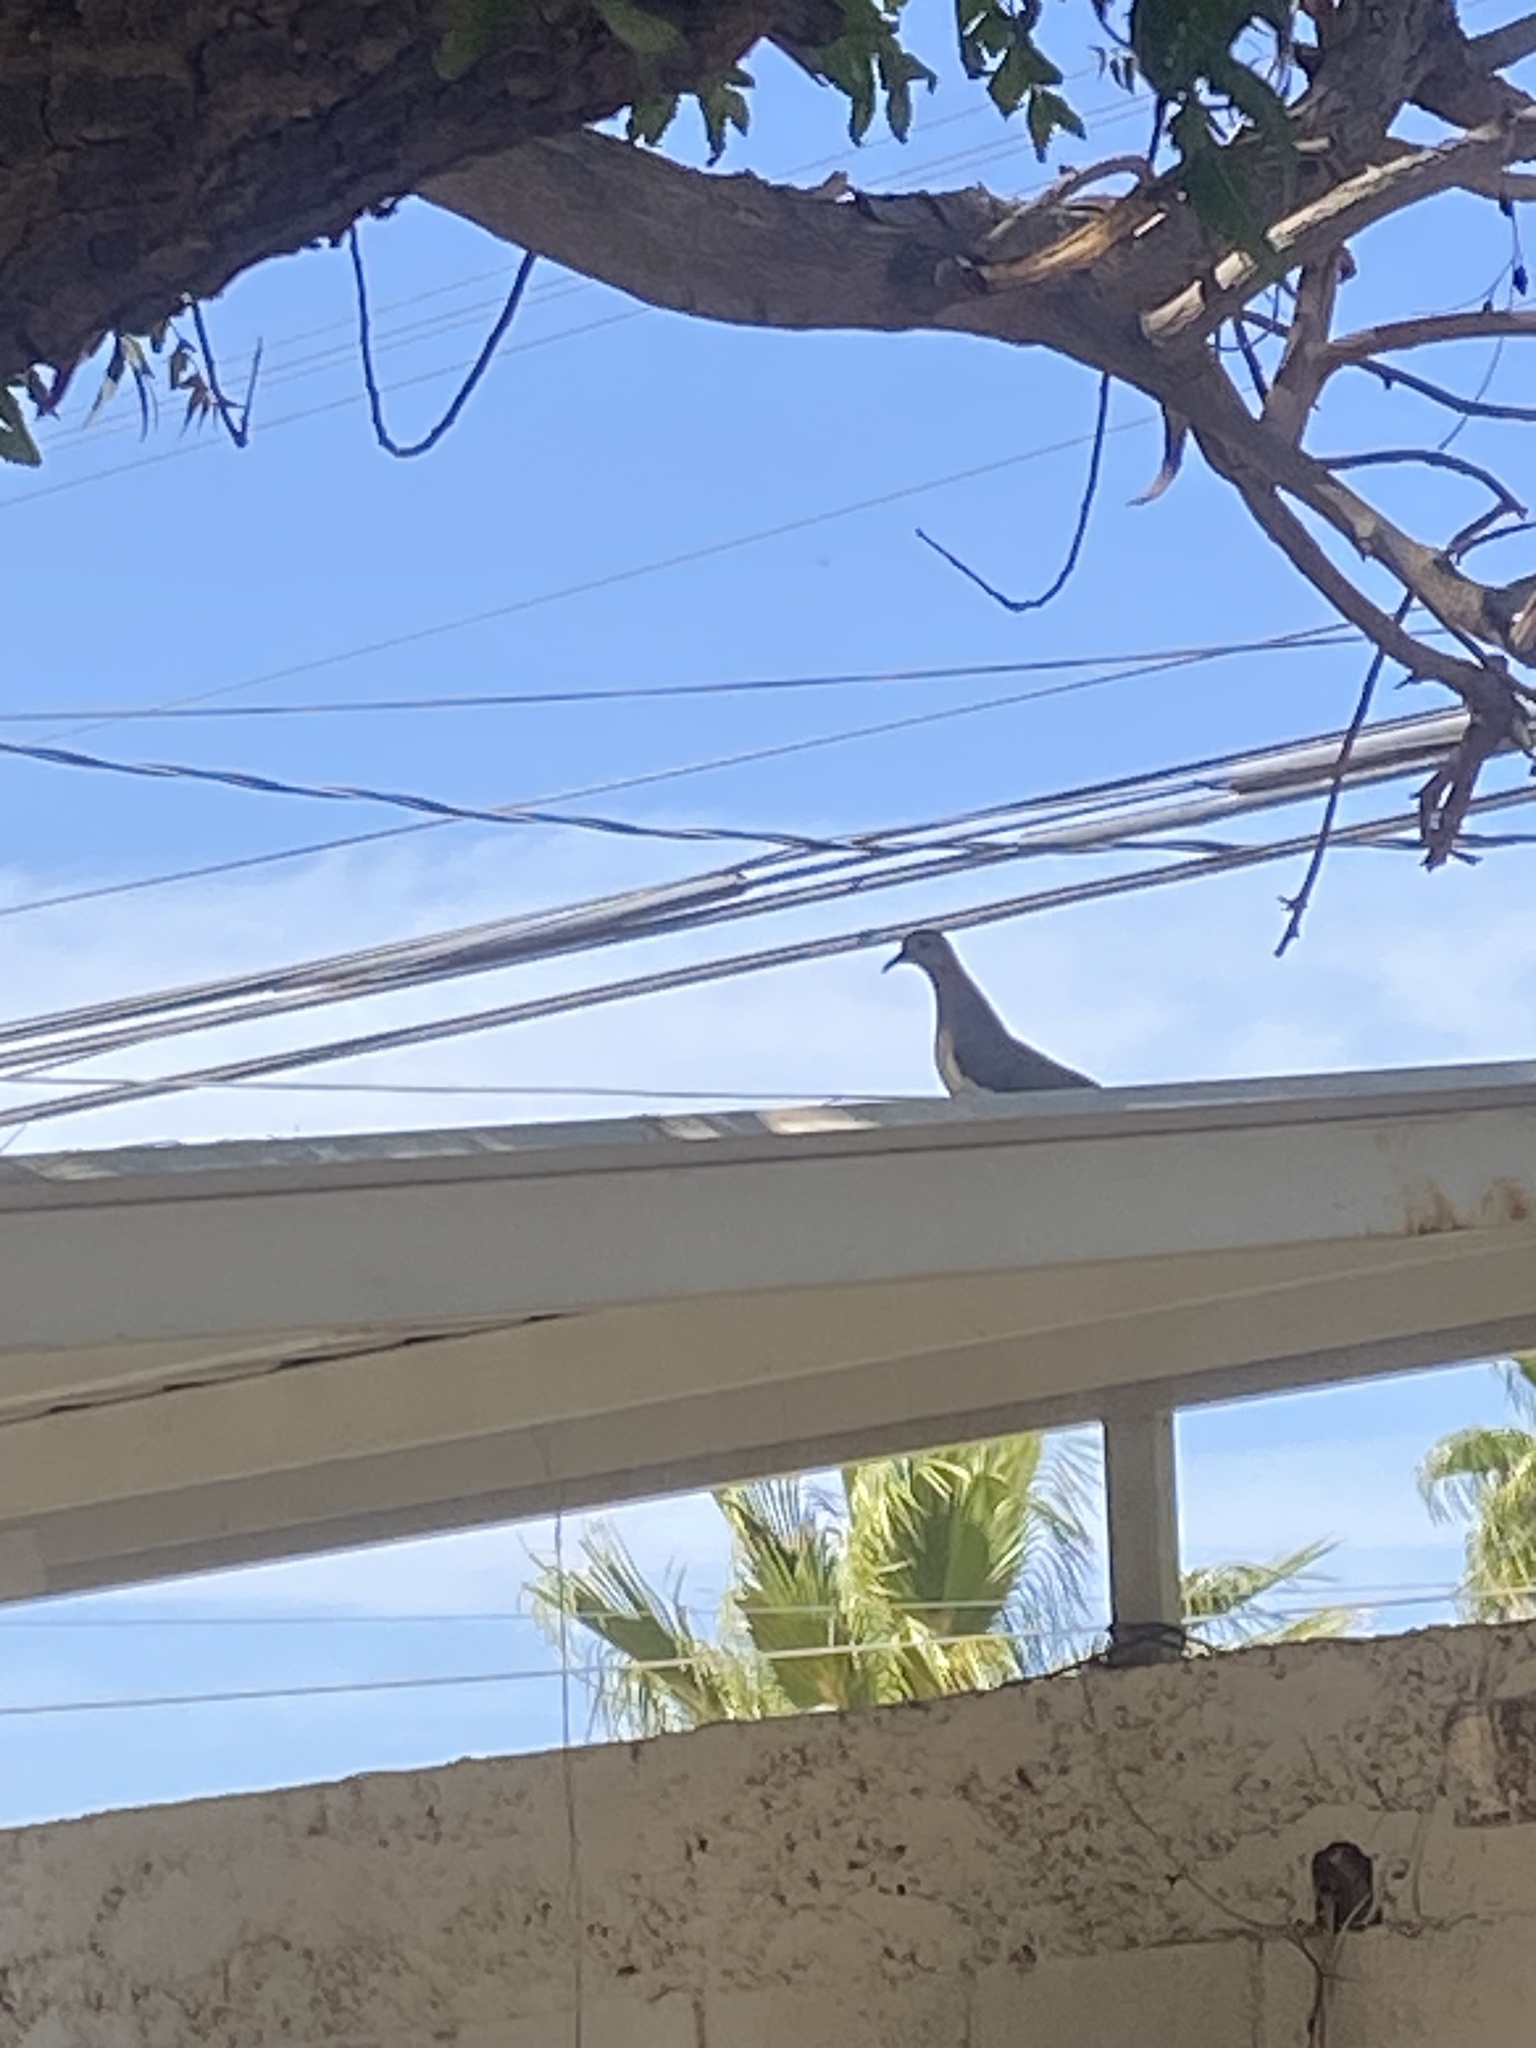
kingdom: Animalia
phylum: Chordata
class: Aves
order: Columbiformes
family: Columbidae
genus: Zenaida
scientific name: Zenaida asiatica
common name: White-winged dove
